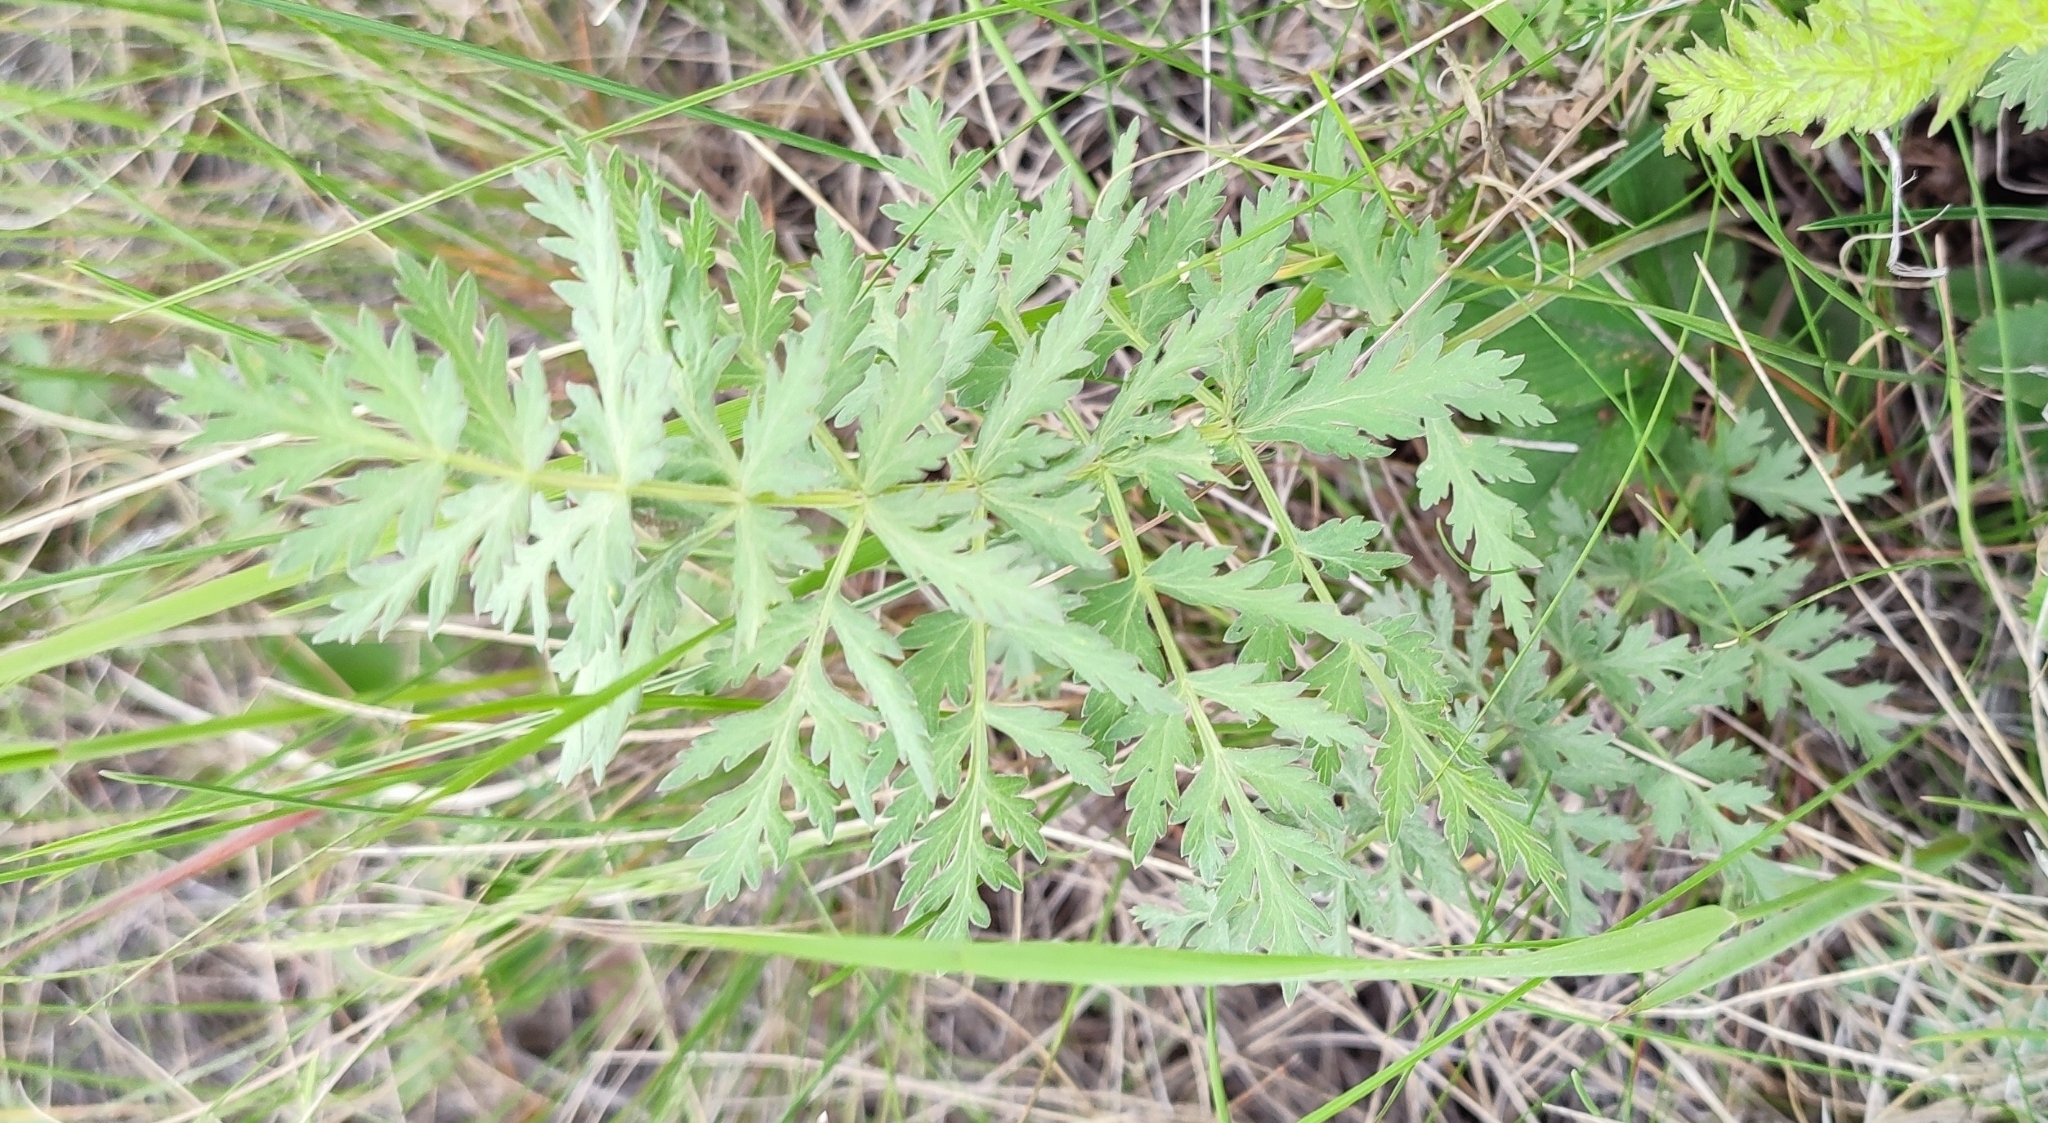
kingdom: Plantae
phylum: Tracheophyta
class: Magnoliopsida
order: Apiales
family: Apiaceae
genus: Seseli
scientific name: Seseli libanotis
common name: Mooncarrot
